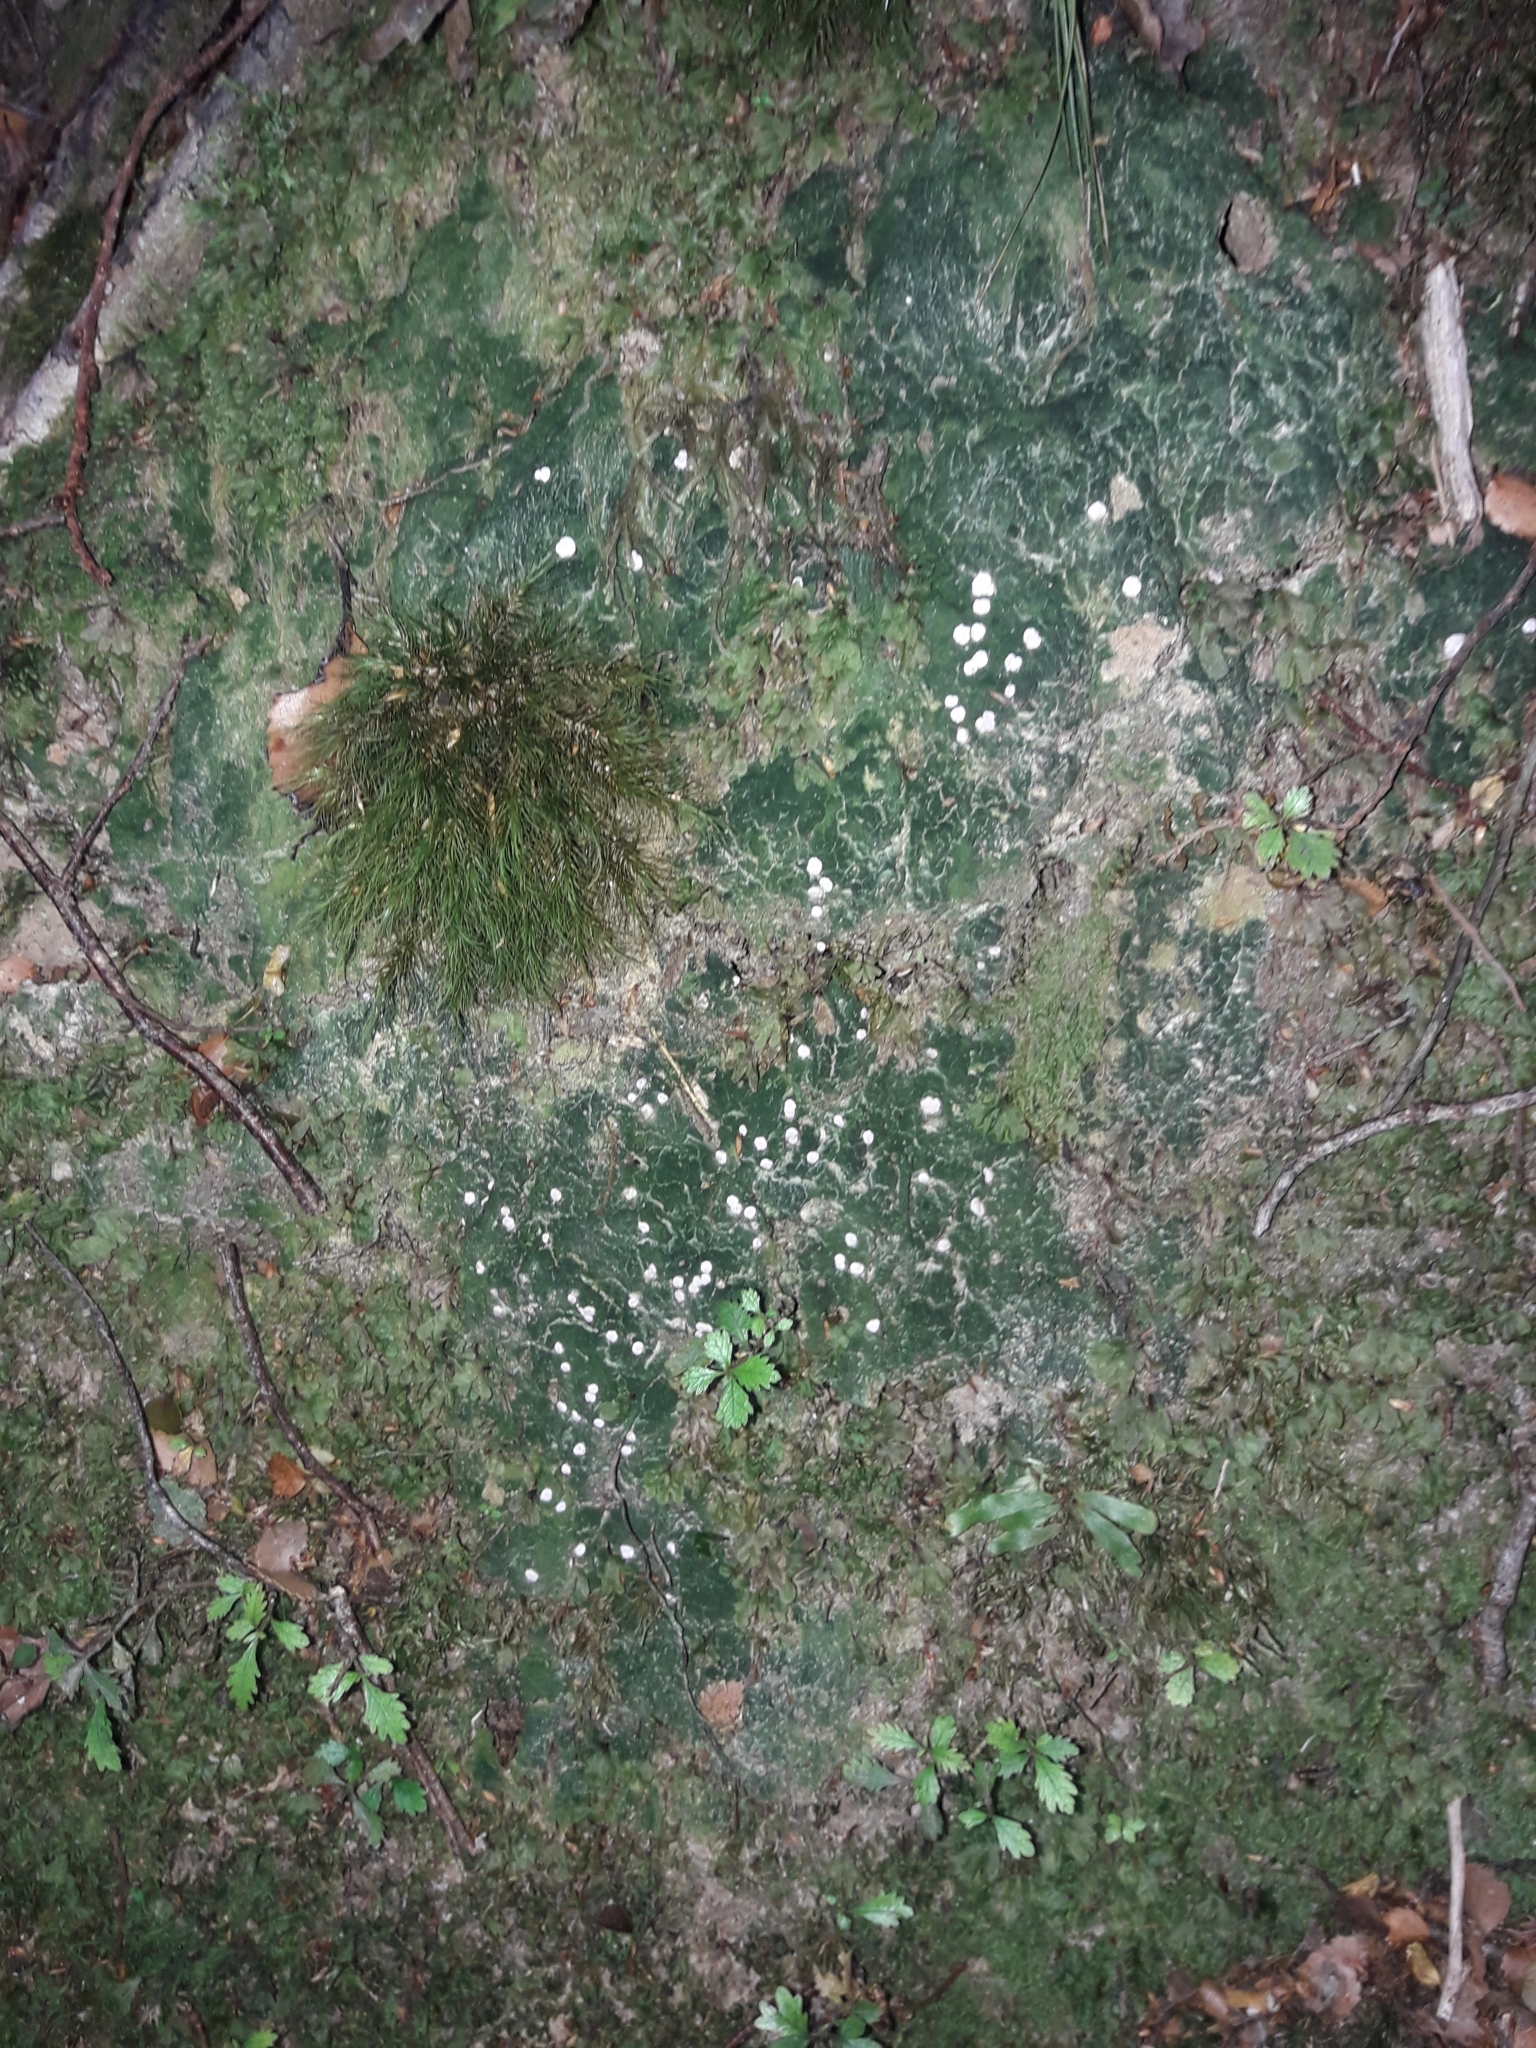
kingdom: Fungi
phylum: Ascomycota
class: Lecanoromycetes
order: Pertusariales
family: Icmadophilaceae
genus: Dibaeis
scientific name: Dibaeis absoluta
